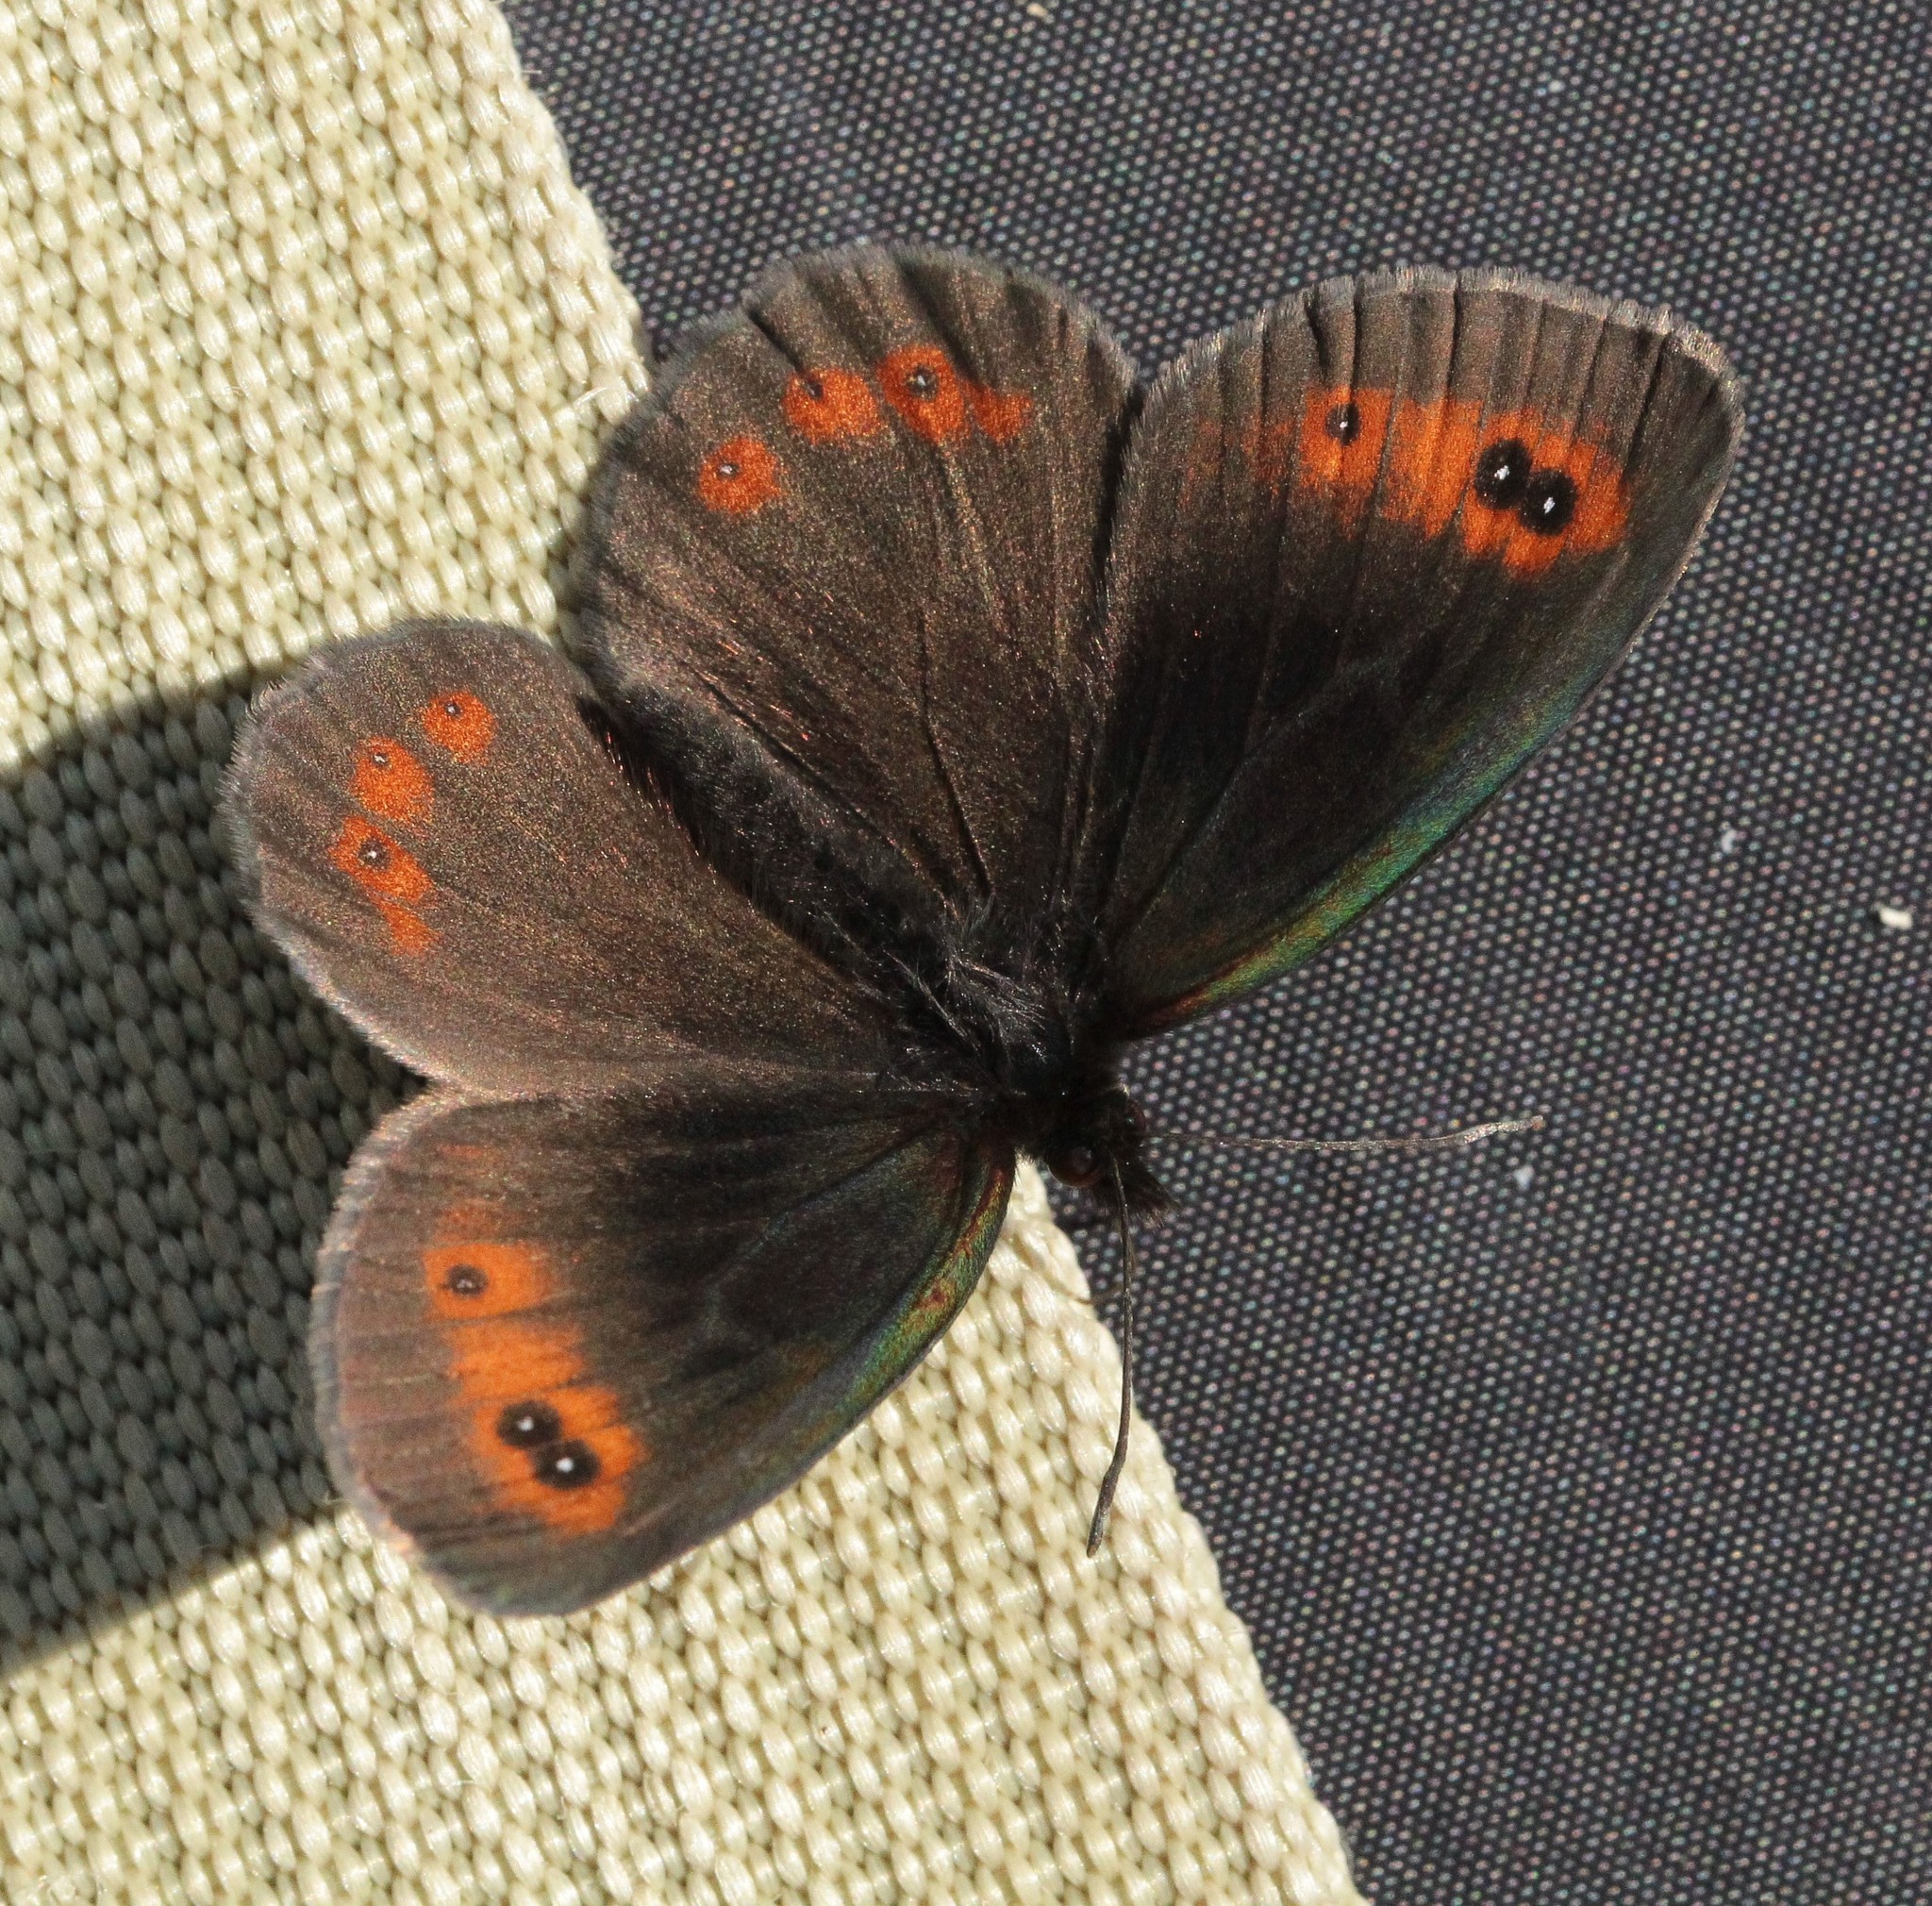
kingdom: Animalia
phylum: Arthropoda
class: Insecta
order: Lepidoptera
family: Nymphalidae
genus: Erebia
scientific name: Erebia aethiops
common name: Scotch argus
